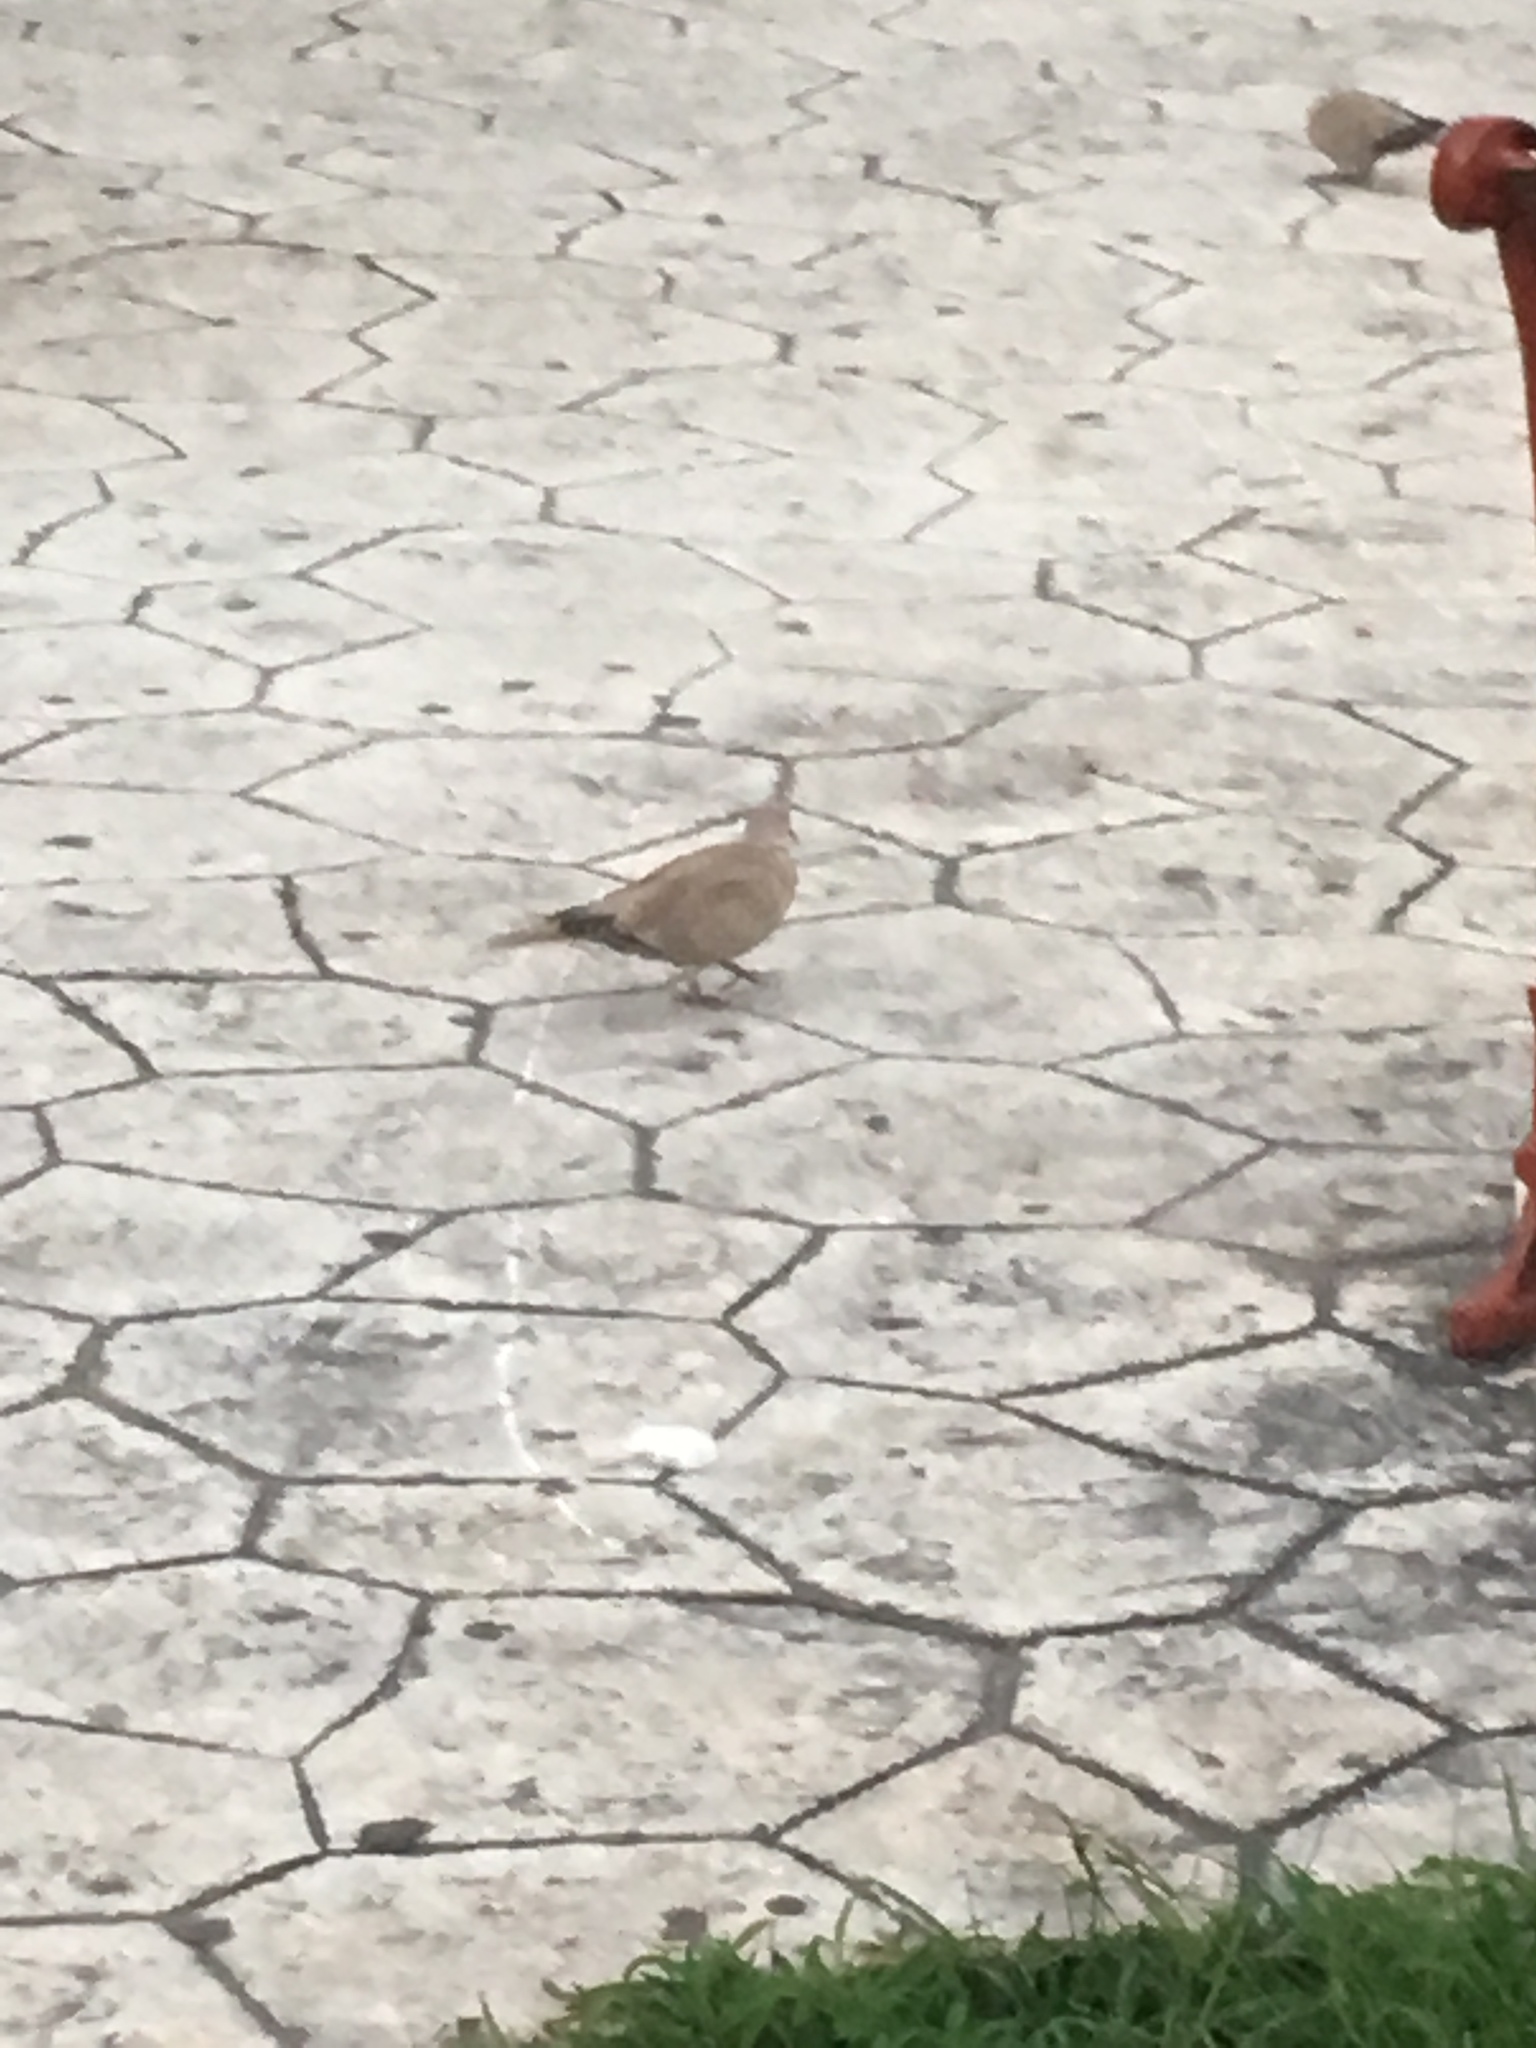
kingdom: Animalia
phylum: Chordata
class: Aves
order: Columbiformes
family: Columbidae
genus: Streptopelia
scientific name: Streptopelia decaocto
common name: Eurasian collared dove
